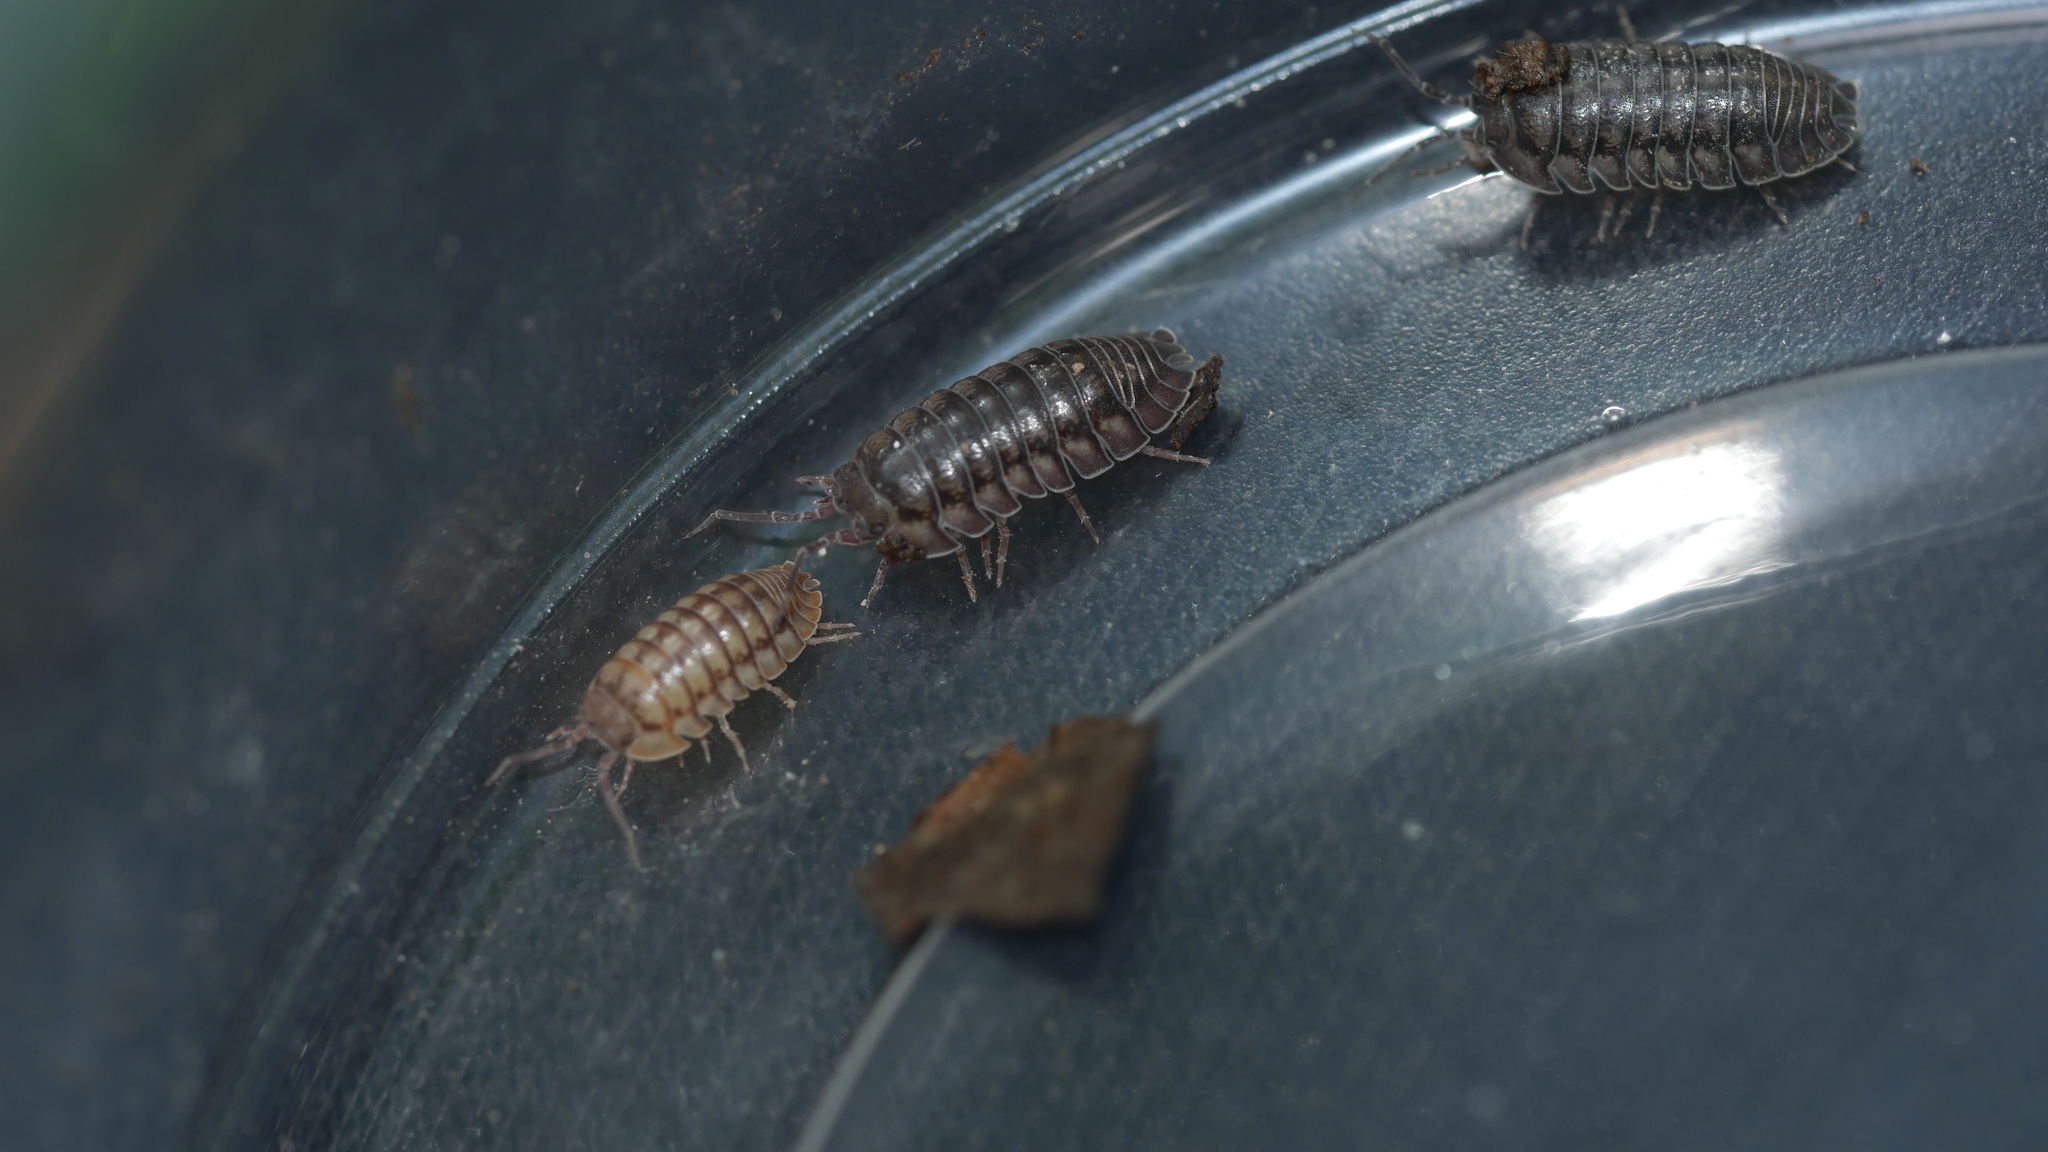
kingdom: Animalia
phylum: Arthropoda
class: Malacostraca
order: Isopoda
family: Armadillidiidae
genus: Armadillidium
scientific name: Armadillidium nasatum
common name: Isopod
